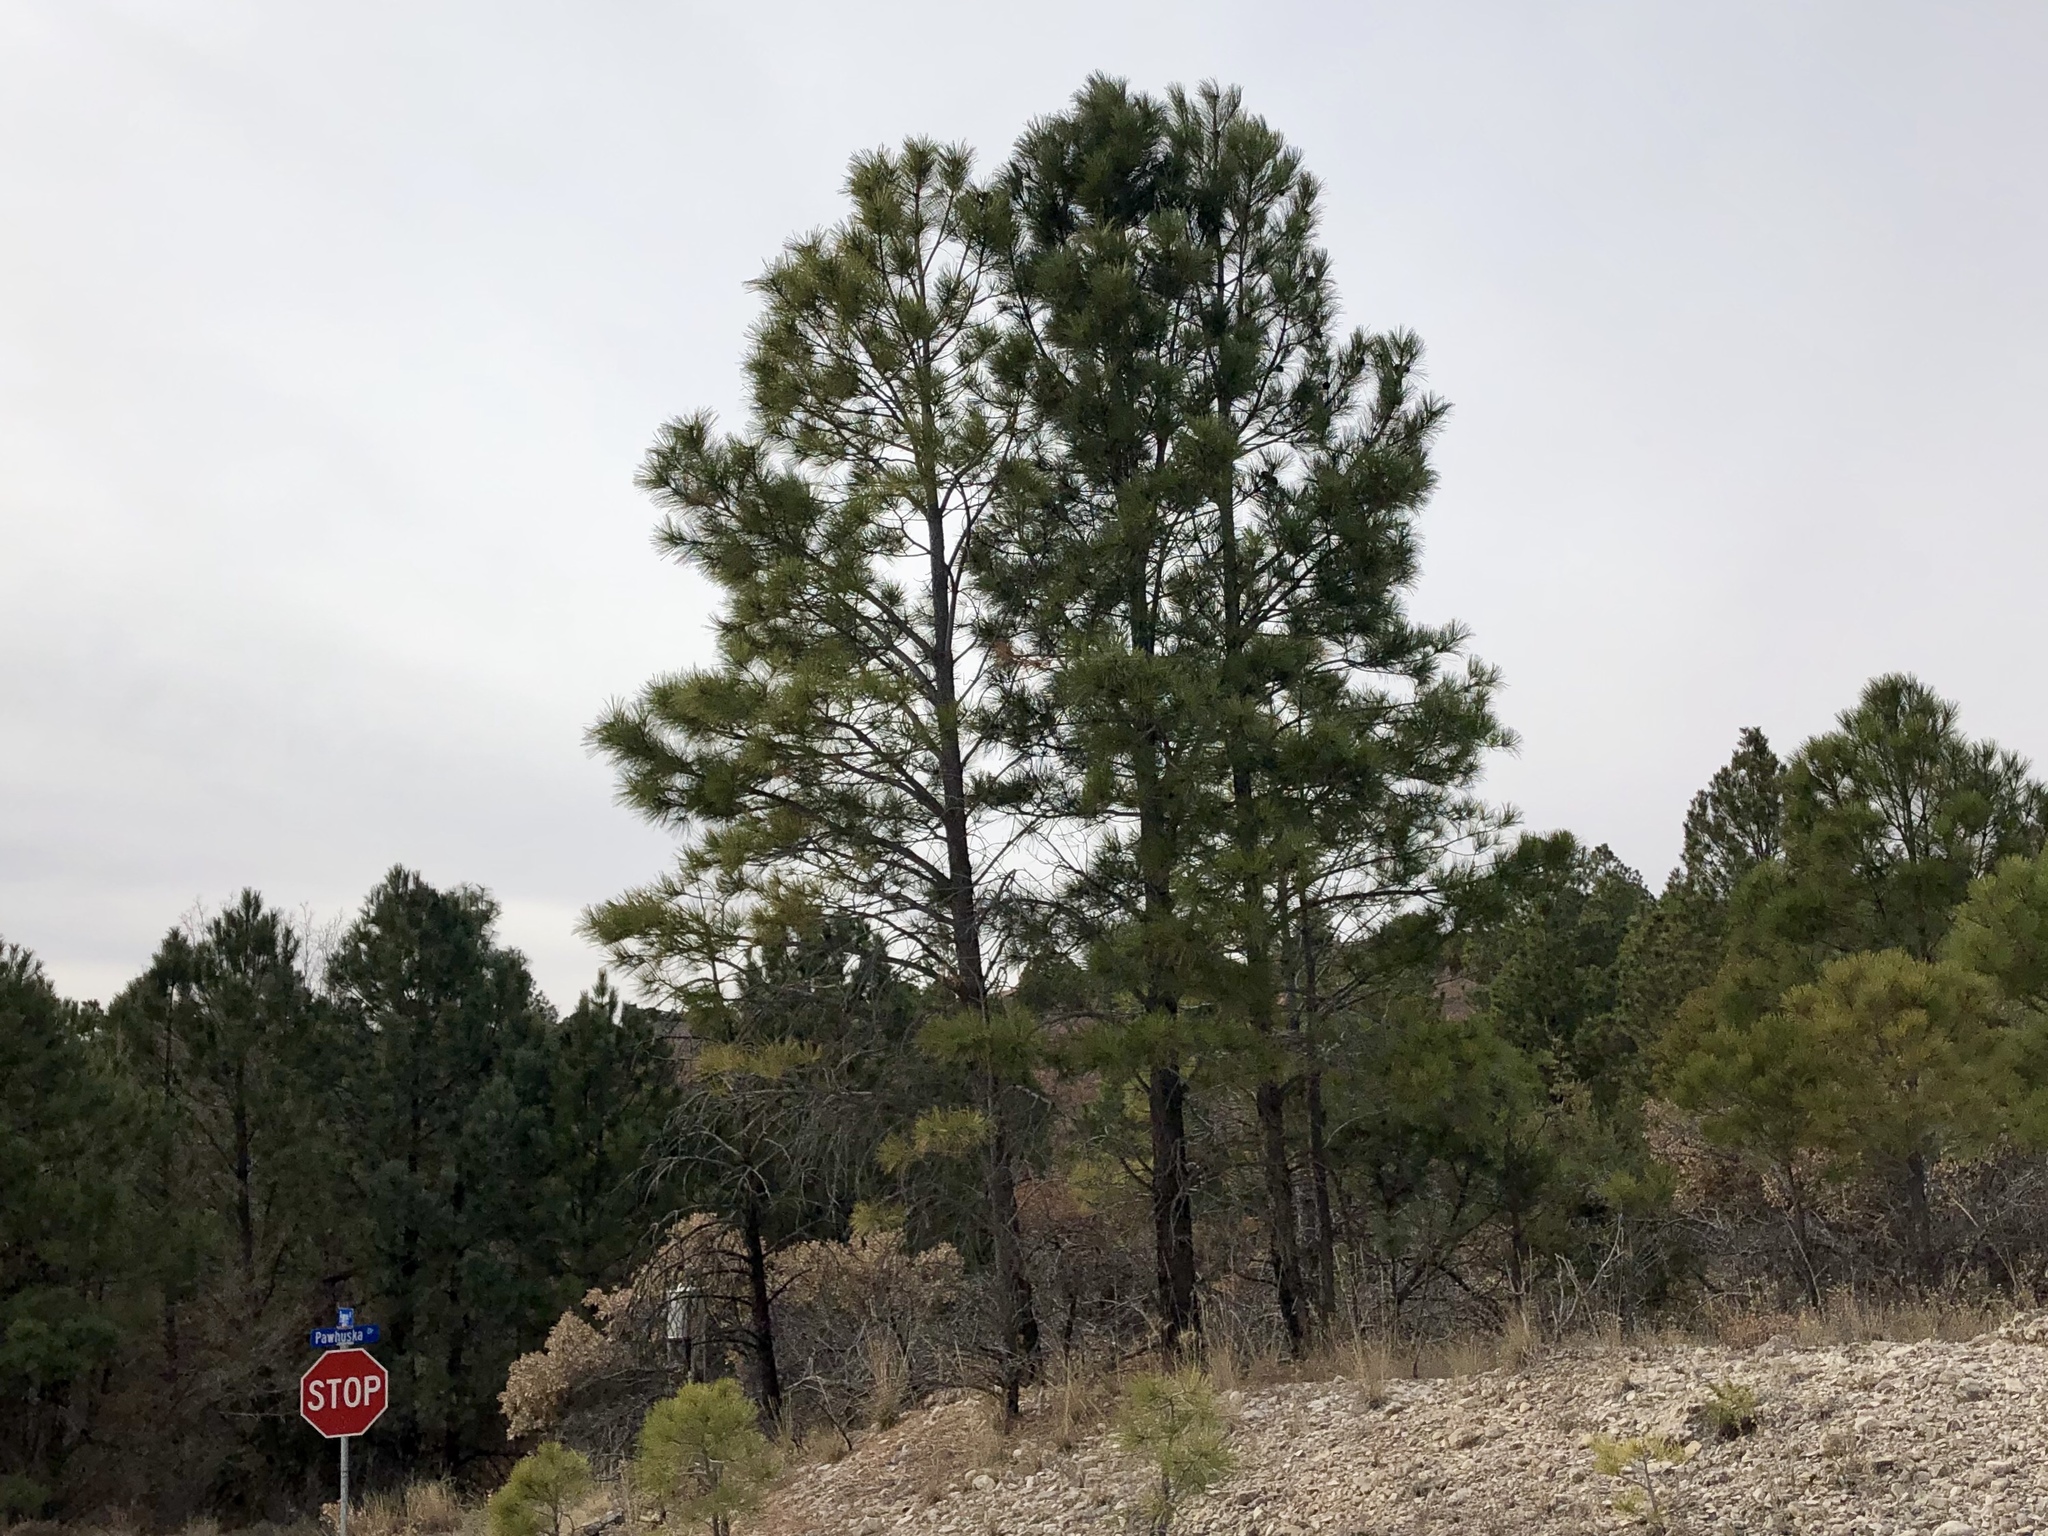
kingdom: Plantae
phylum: Tracheophyta
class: Pinopsida
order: Pinales
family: Pinaceae
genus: Pinus
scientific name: Pinus ponderosa
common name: Western yellow-pine
